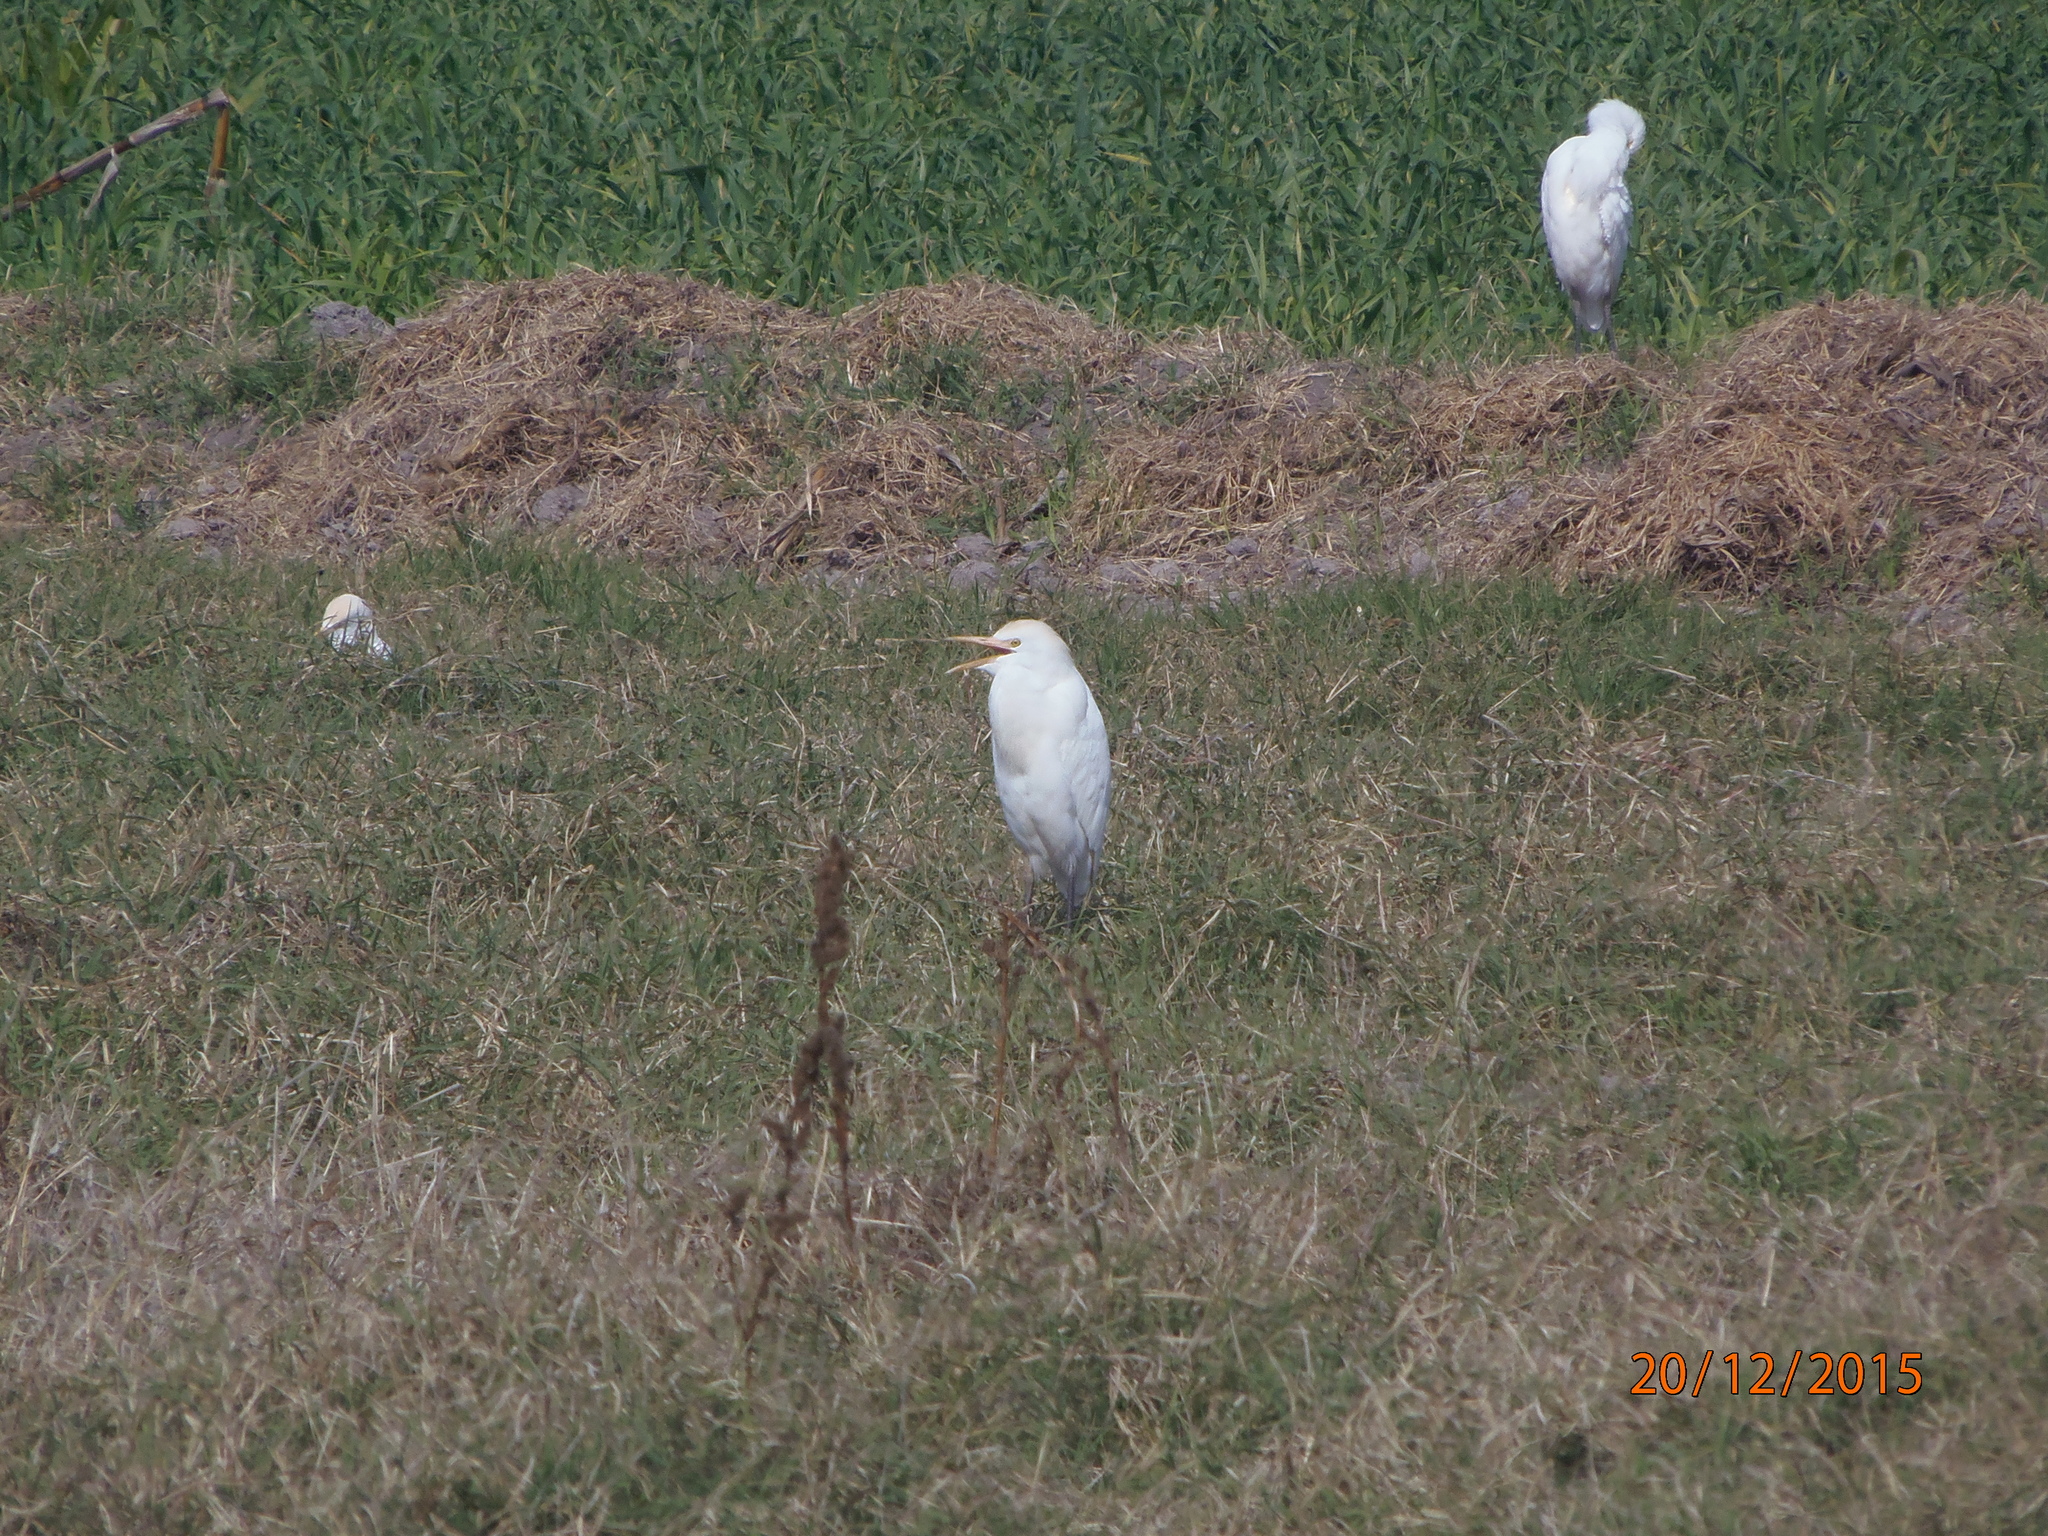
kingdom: Animalia
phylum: Chordata
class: Aves
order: Pelecaniformes
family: Ardeidae
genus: Bubulcus
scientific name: Bubulcus ibis
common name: Cattle egret
